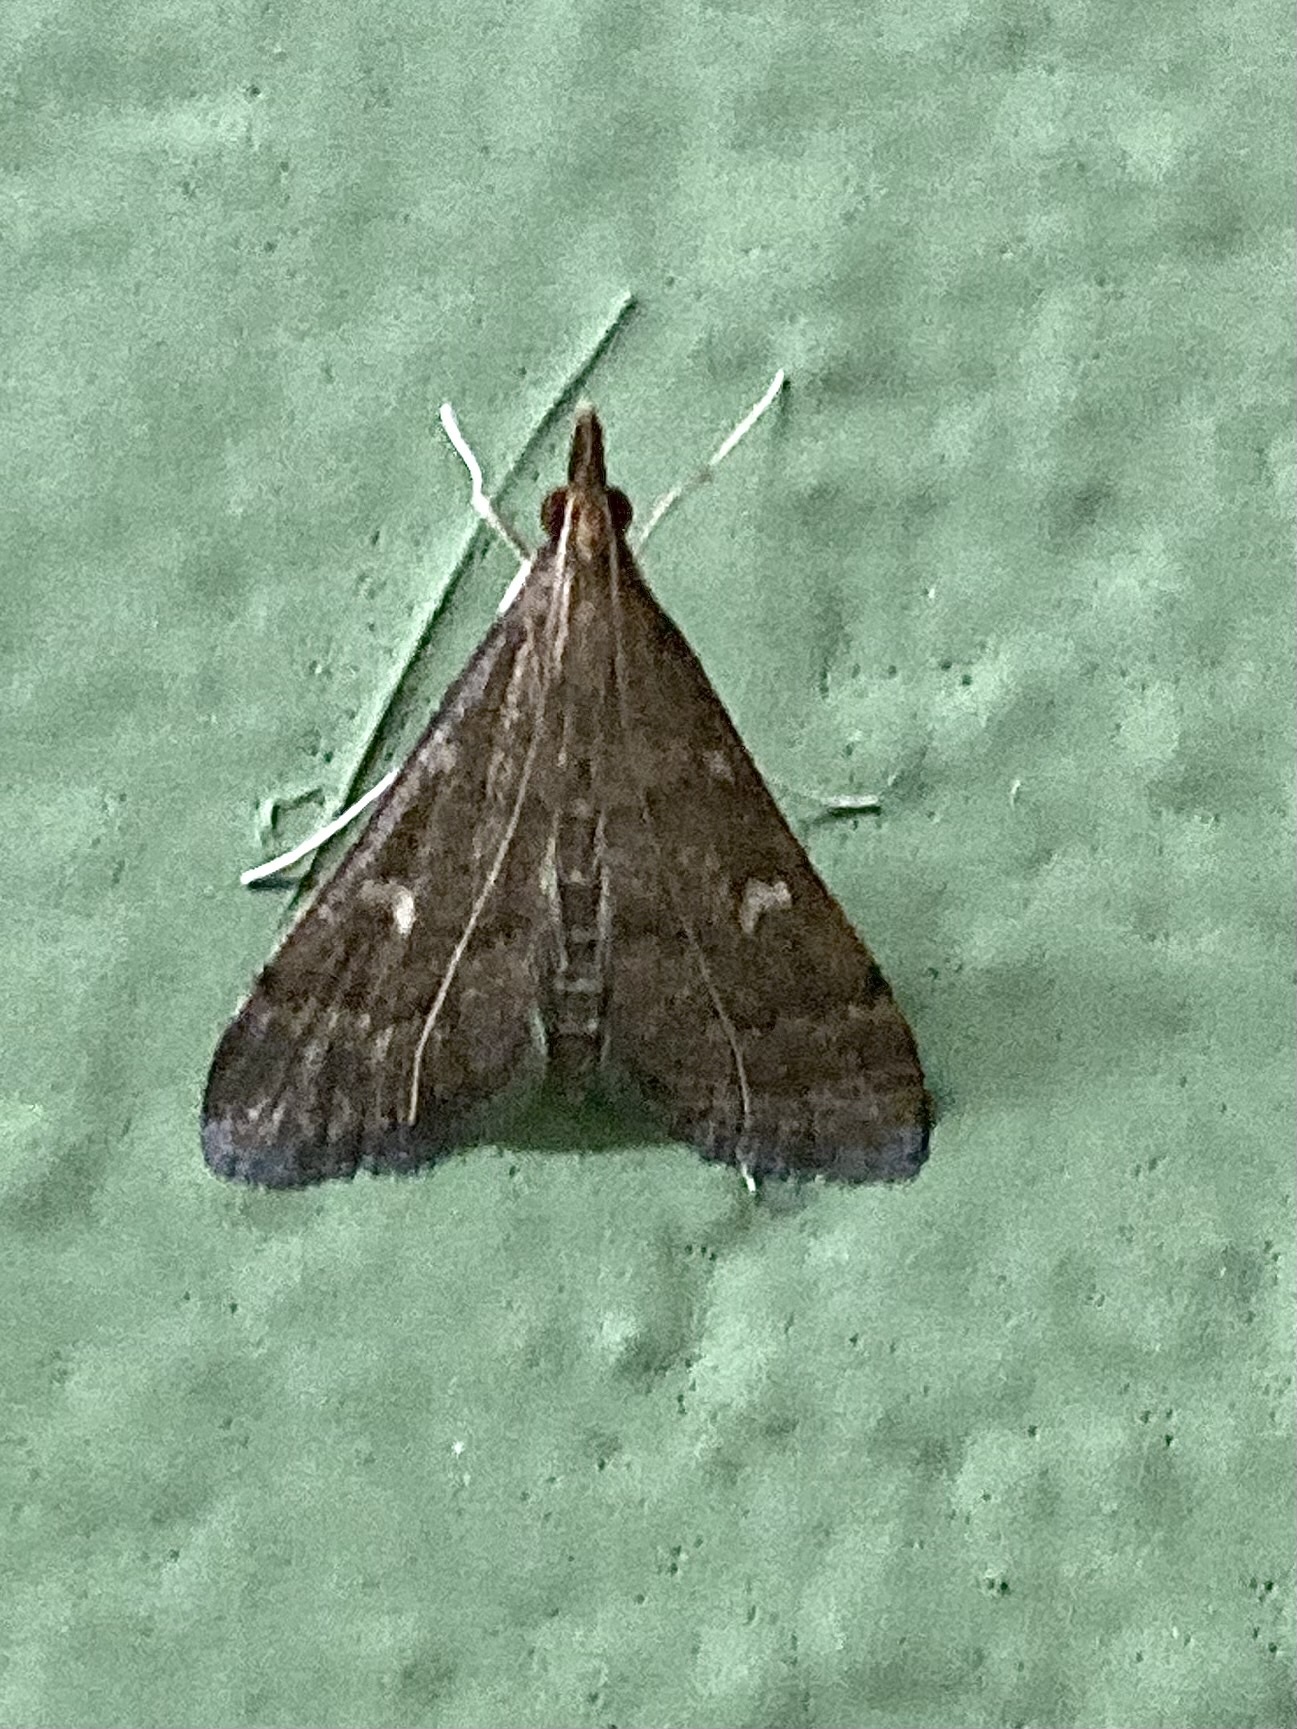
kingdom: Animalia
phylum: Arthropoda
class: Insecta
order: Lepidoptera
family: Crambidae
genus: Stenia
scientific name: Stenia Dolicharthria punctalis
